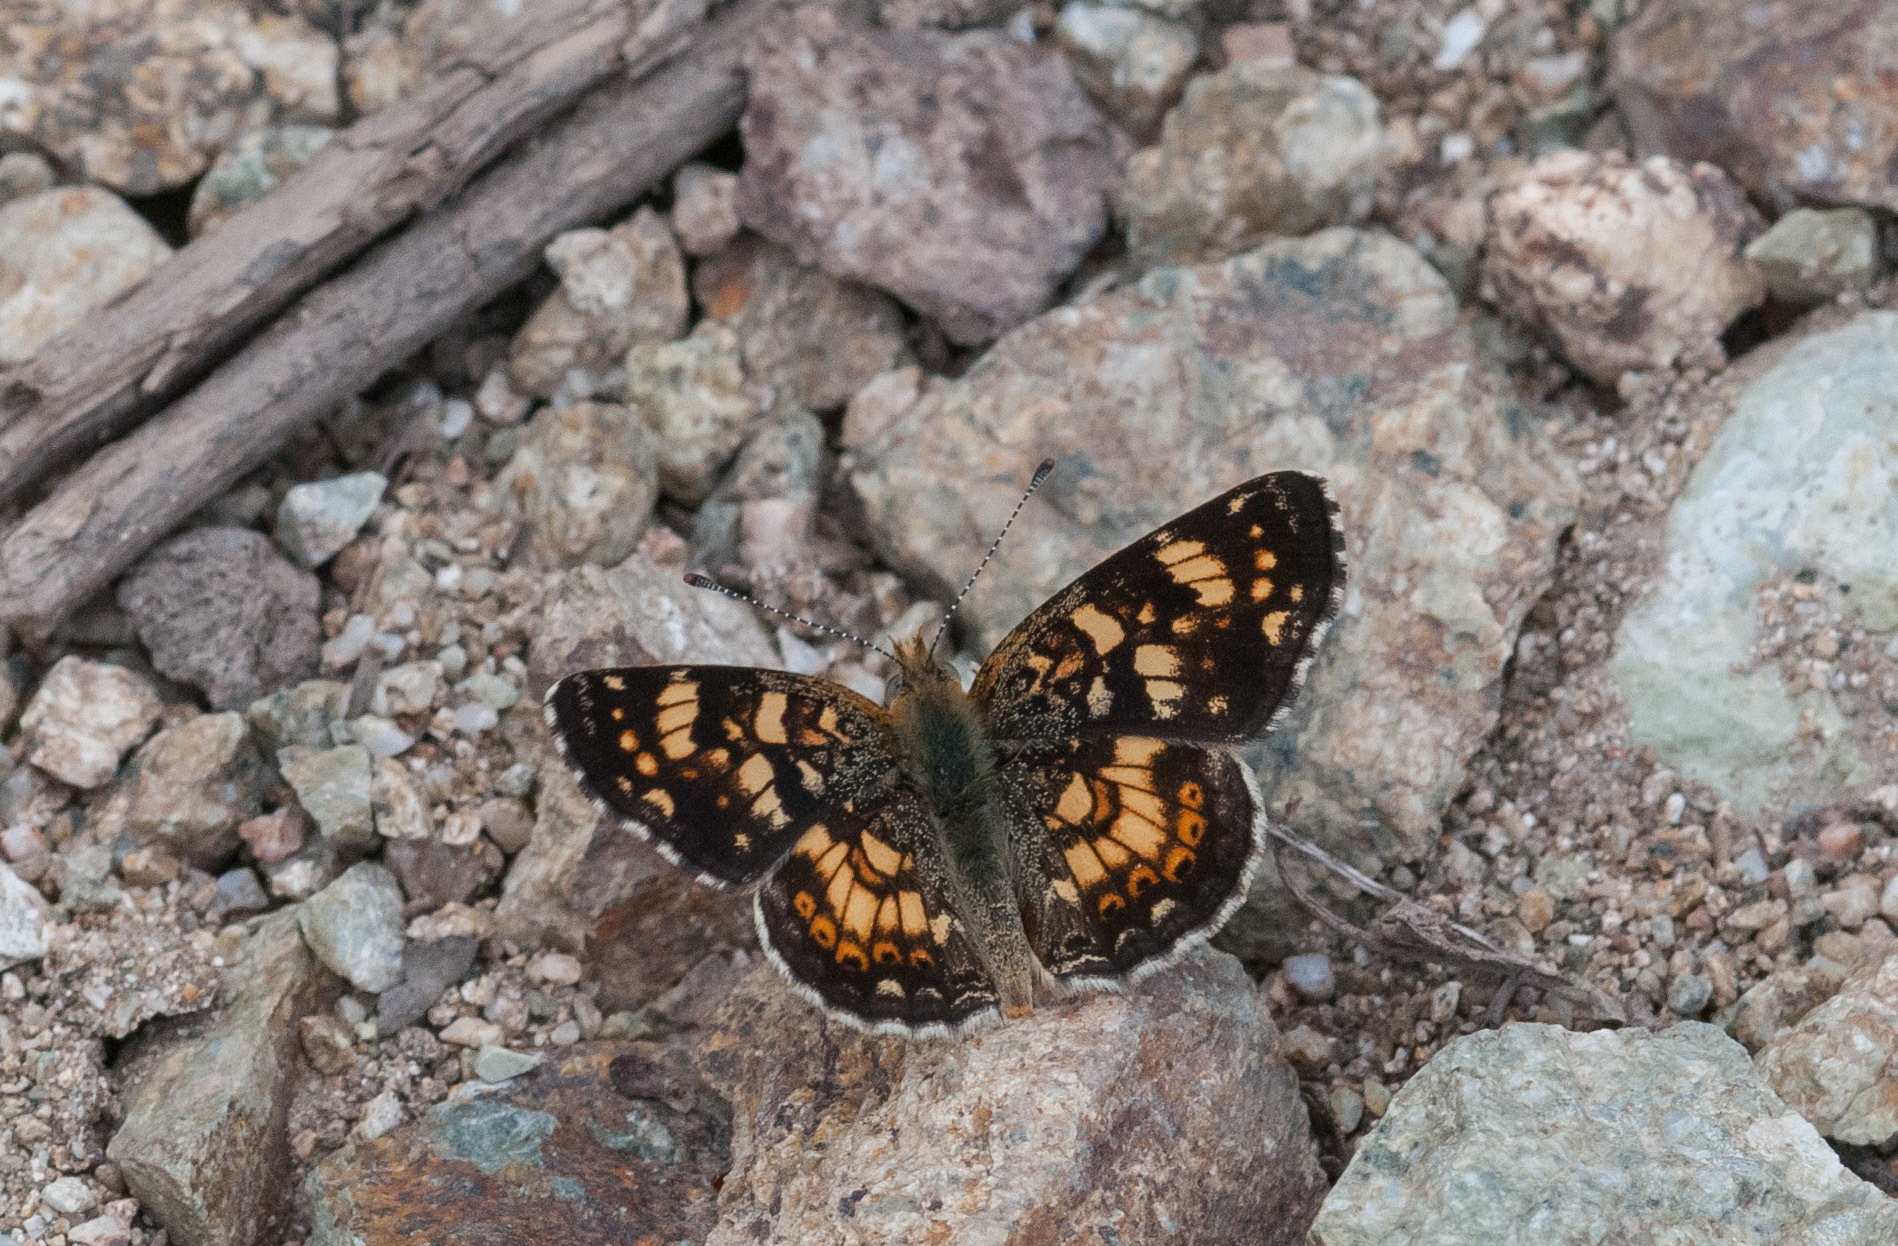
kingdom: Animalia
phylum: Arthropoda
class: Insecta
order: Lepidoptera
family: Nymphalidae
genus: Phyciodes
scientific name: Phyciodes tharos
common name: Pearl crescent
